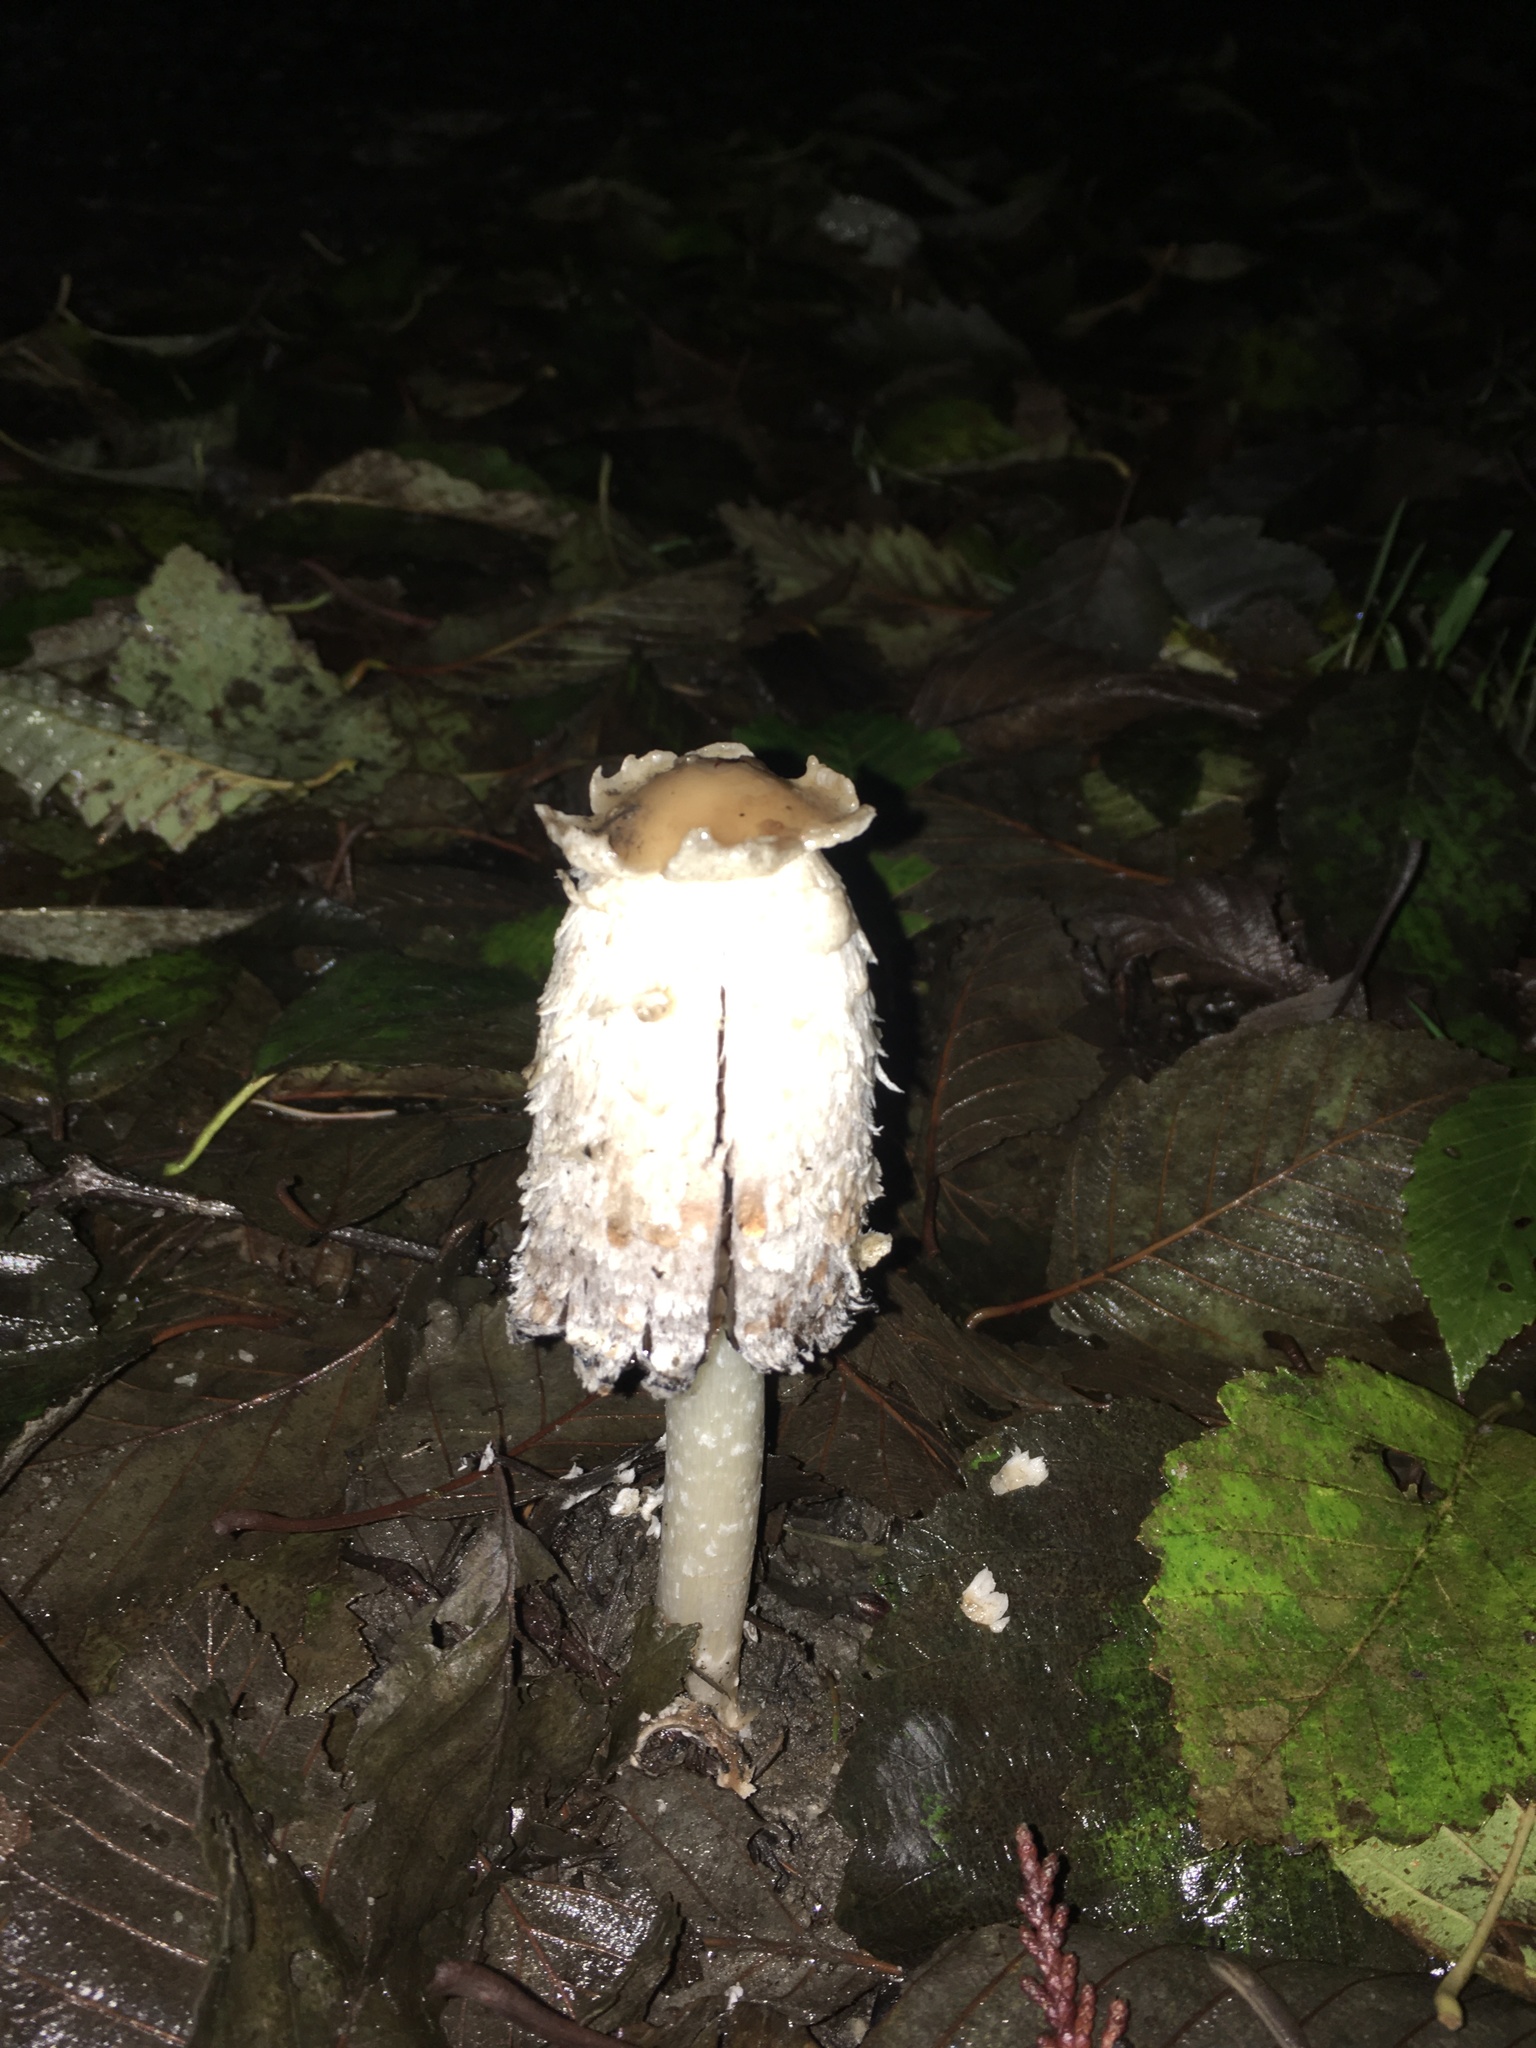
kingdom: Fungi
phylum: Basidiomycota
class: Agaricomycetes
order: Agaricales
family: Agaricaceae
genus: Coprinus
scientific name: Coprinus comatus
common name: Lawyer's wig
